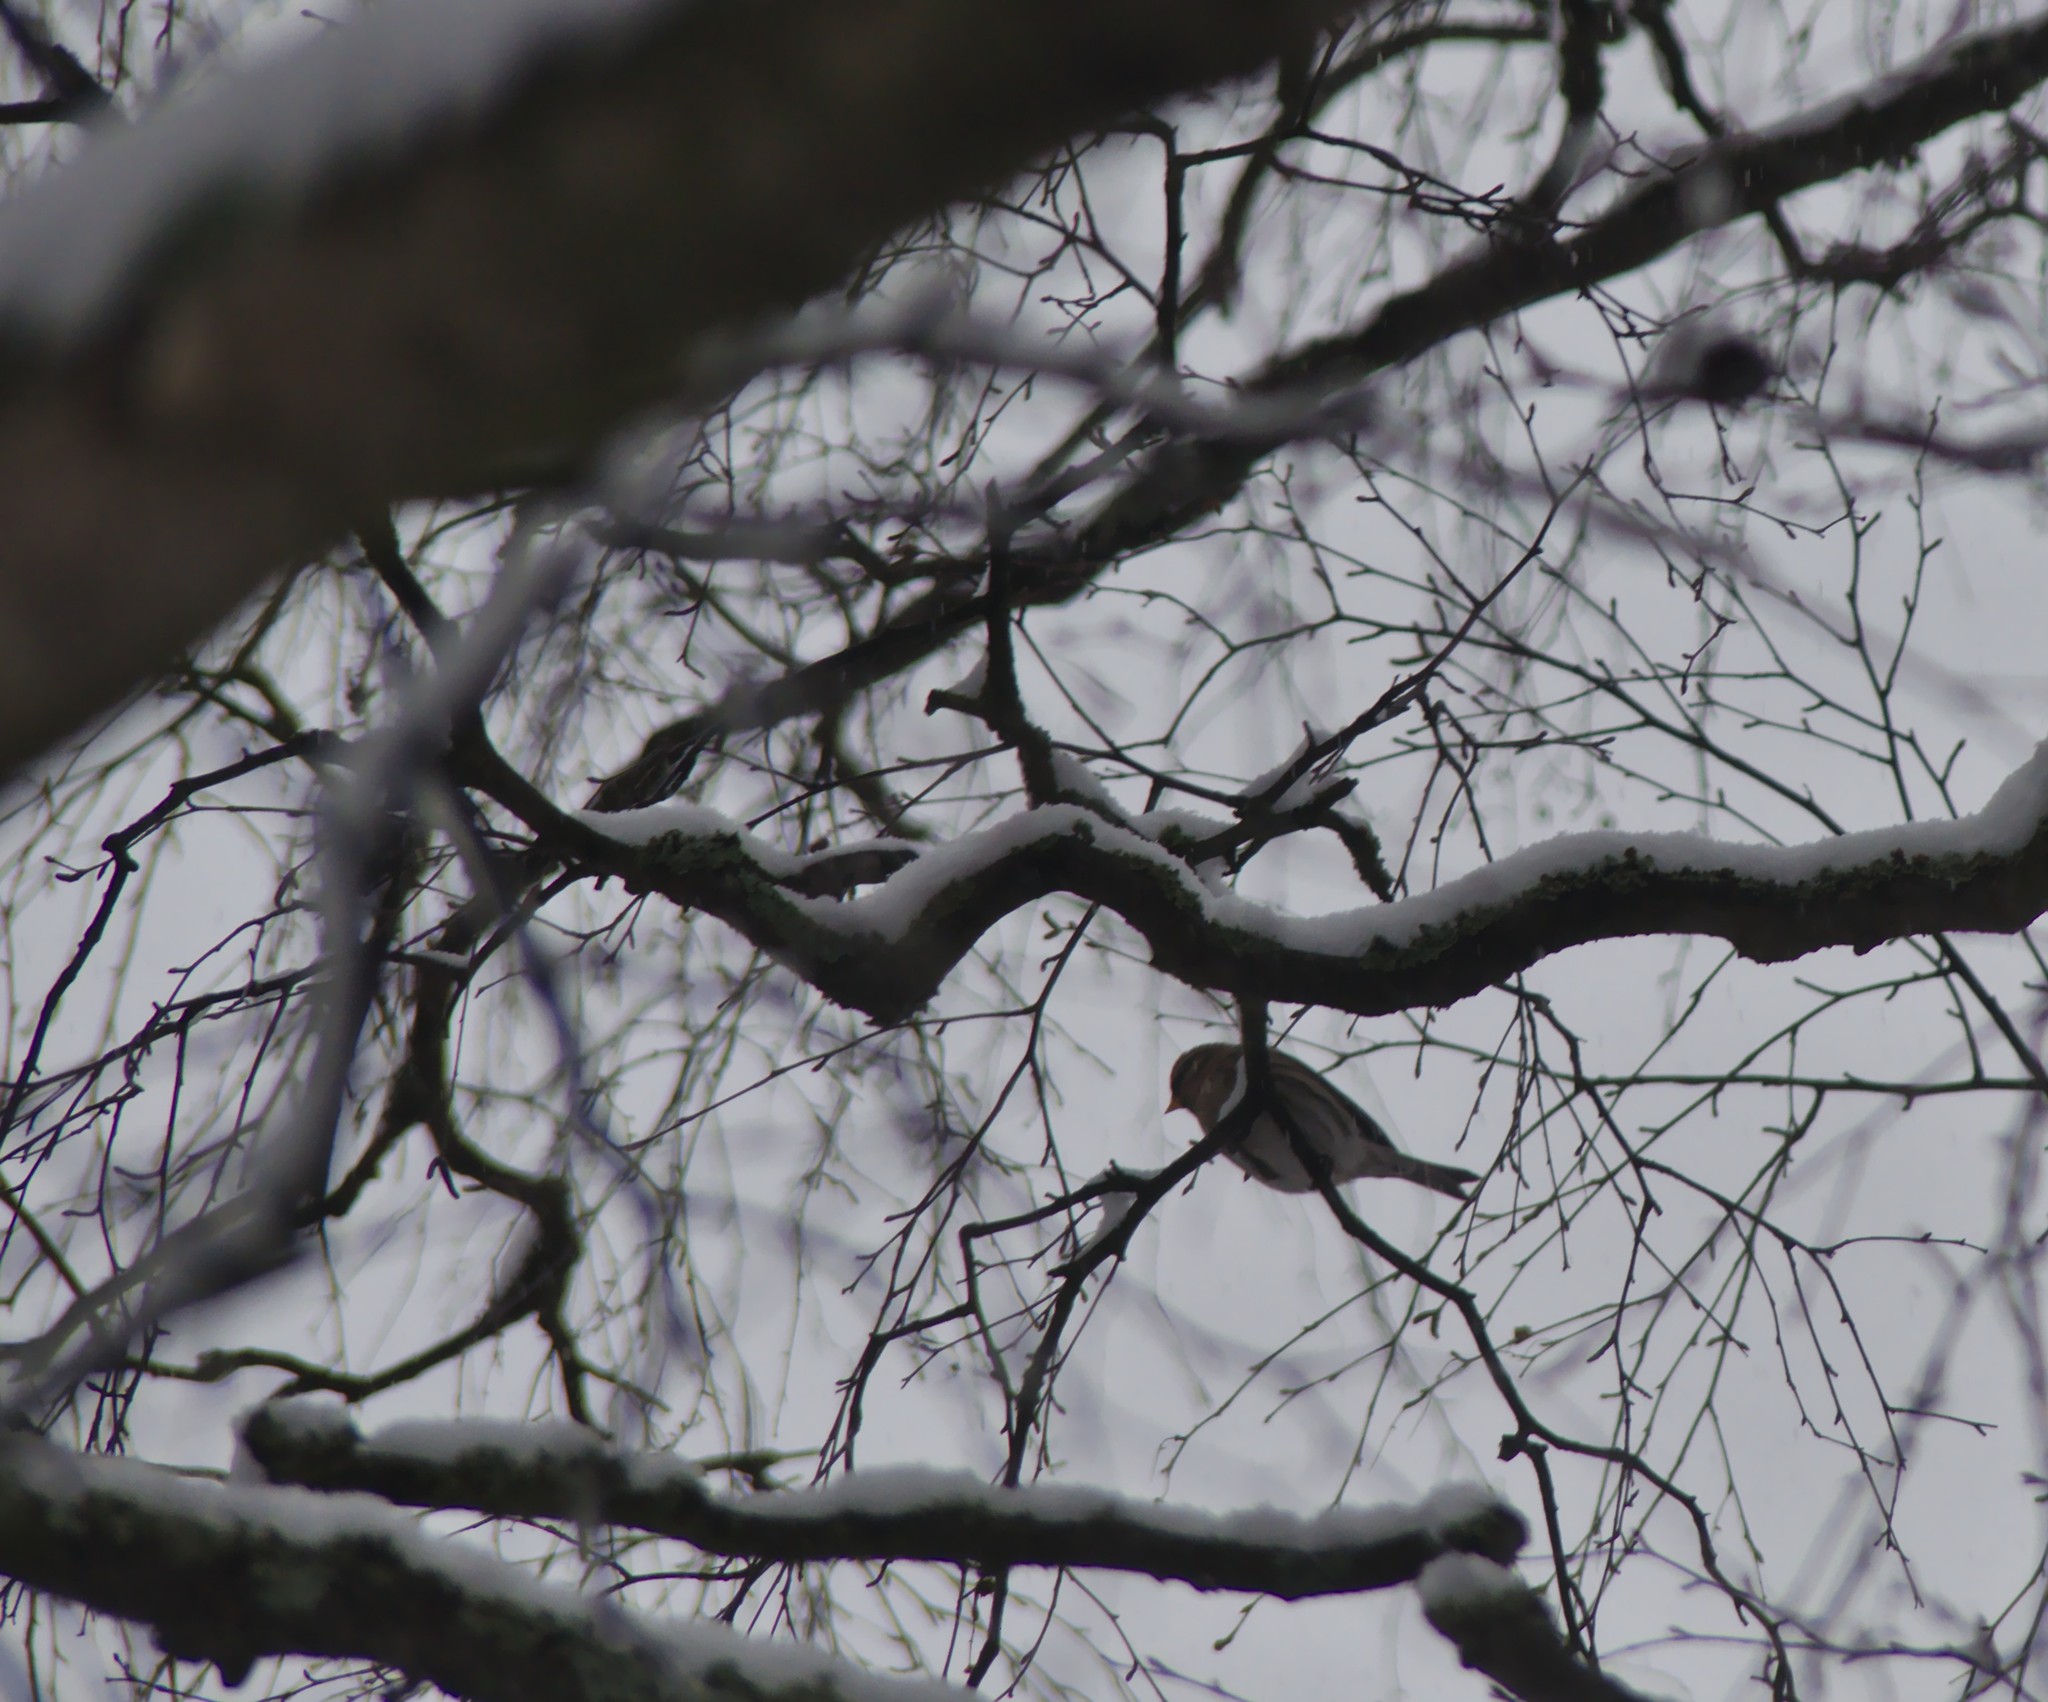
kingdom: Animalia
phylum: Chordata
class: Aves
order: Passeriformes
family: Fringillidae
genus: Acanthis
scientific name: Acanthis flammea
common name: Common redpoll
